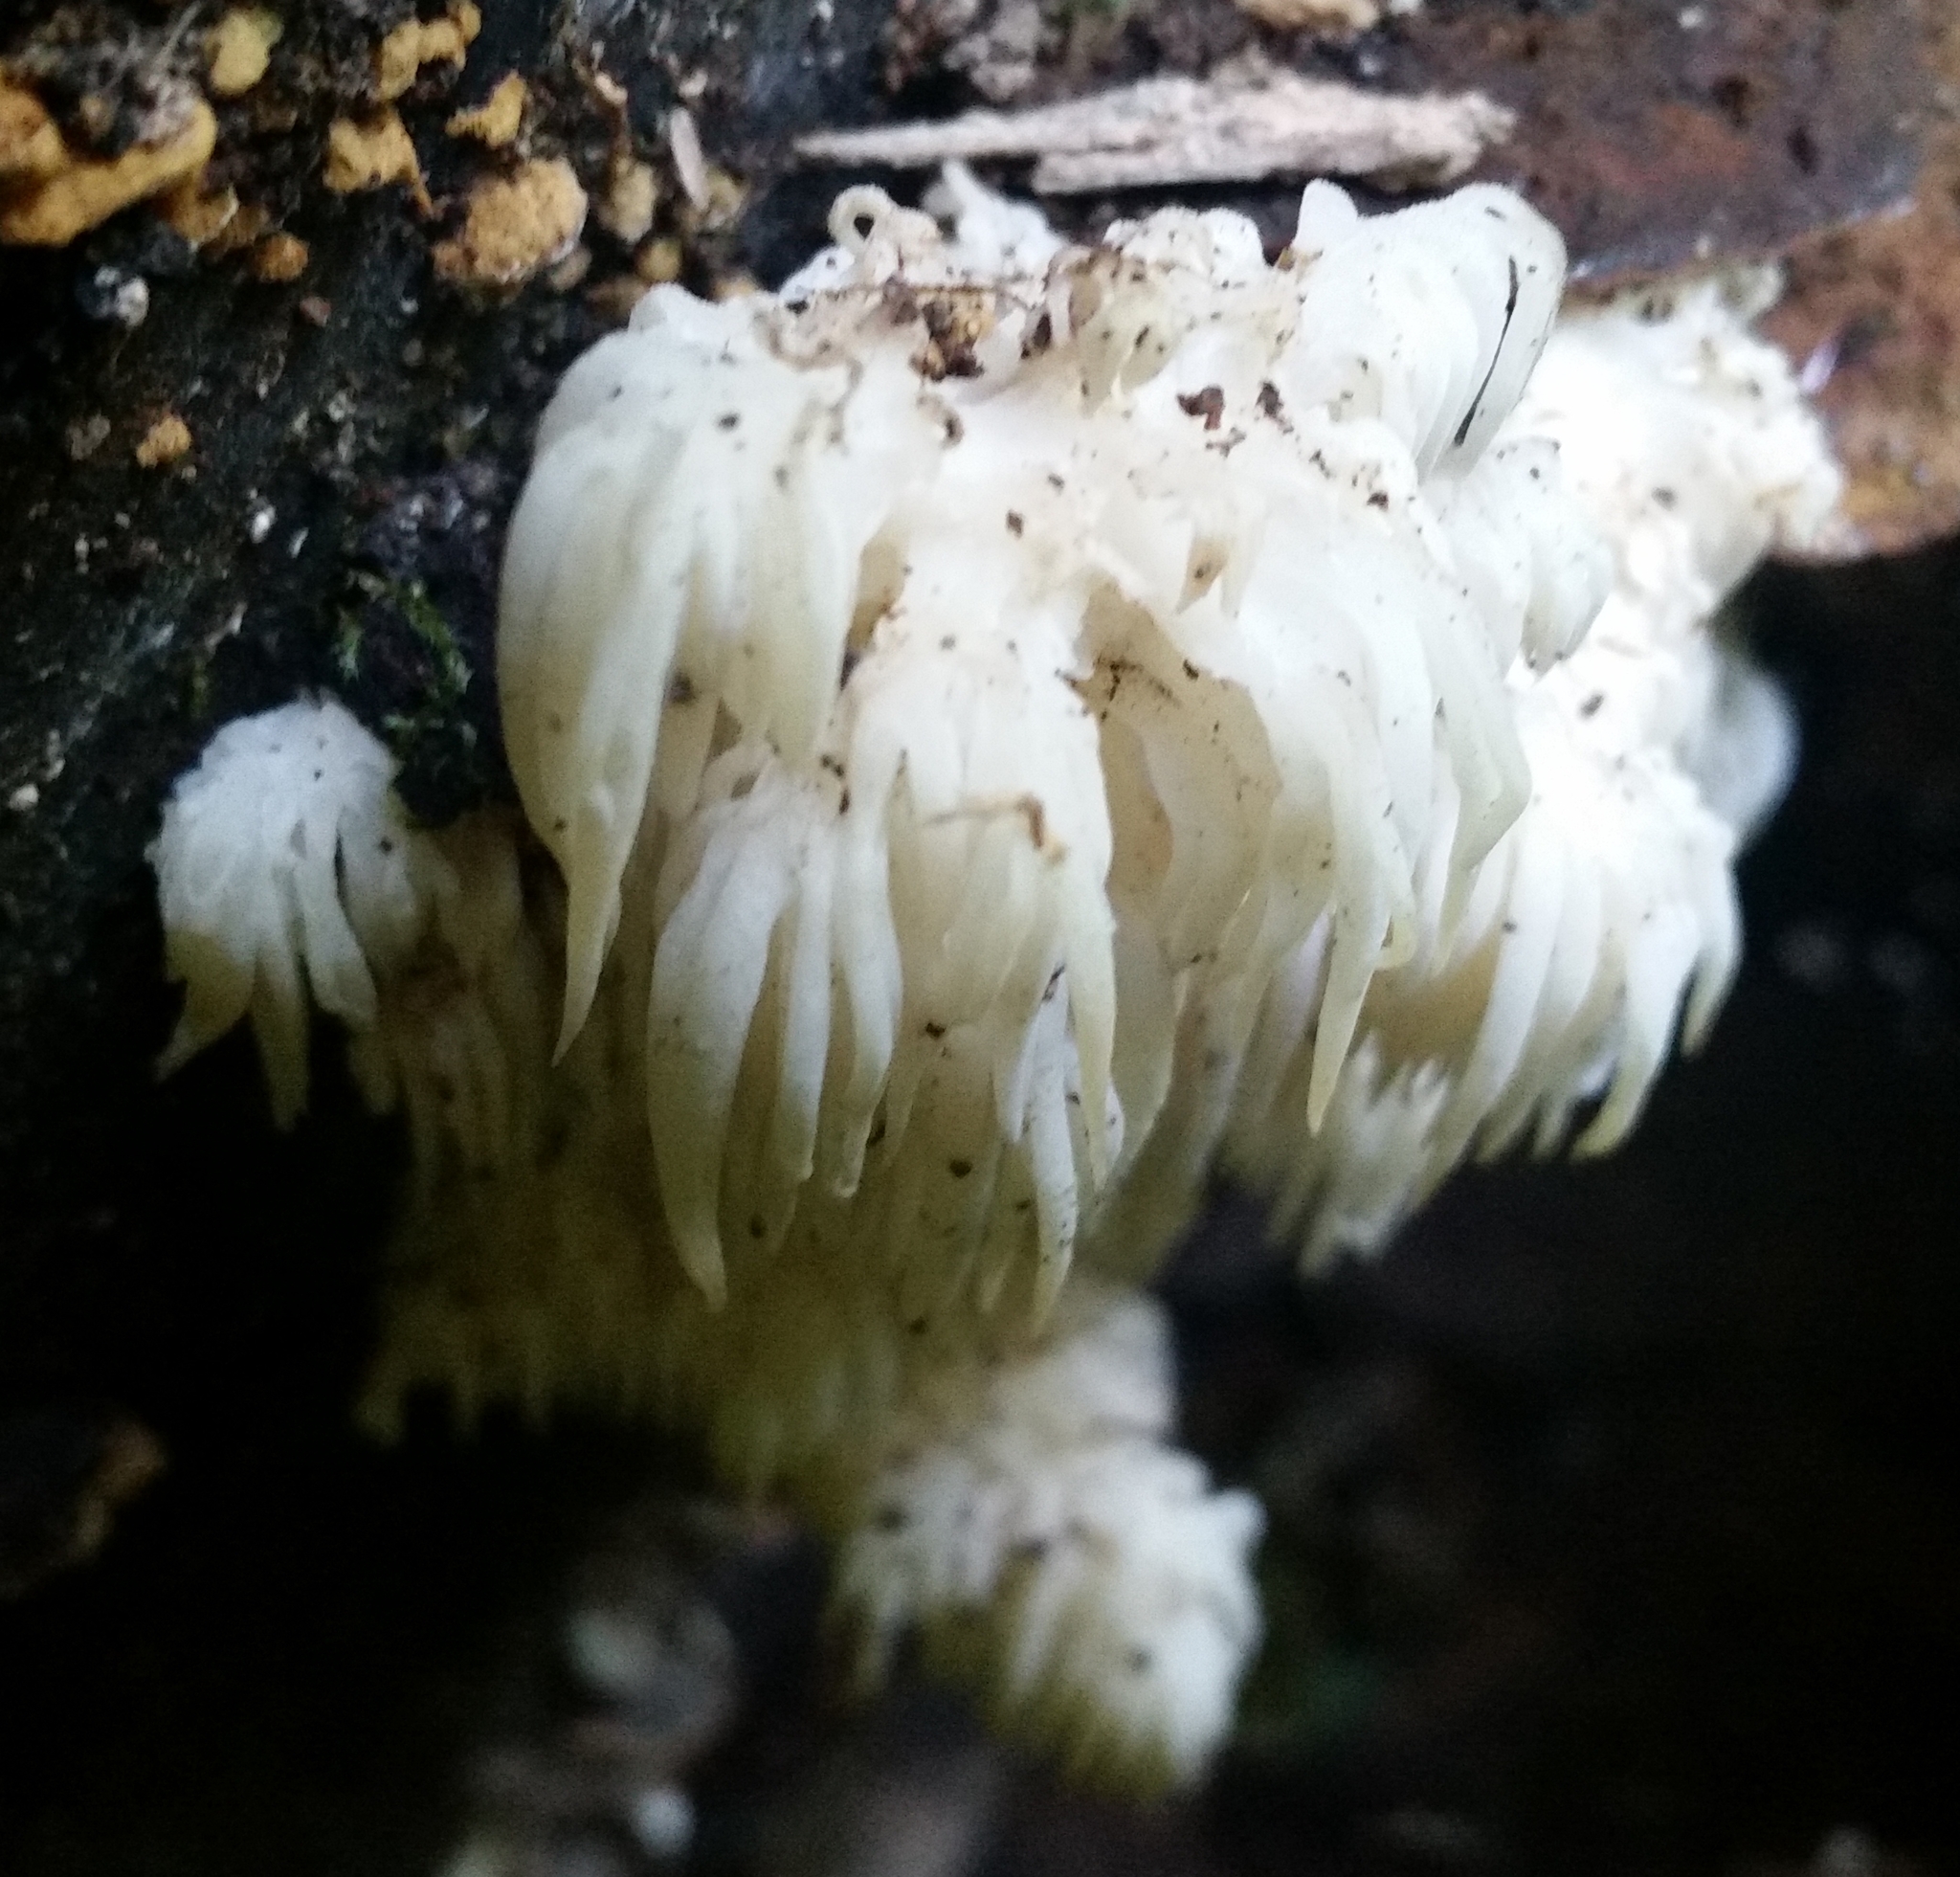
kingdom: Fungi
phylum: Basidiomycota
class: Agaricomycetes
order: Russulales
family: Hericiaceae
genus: Hericium
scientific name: Hericium americanum
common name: Bear's head tooth
